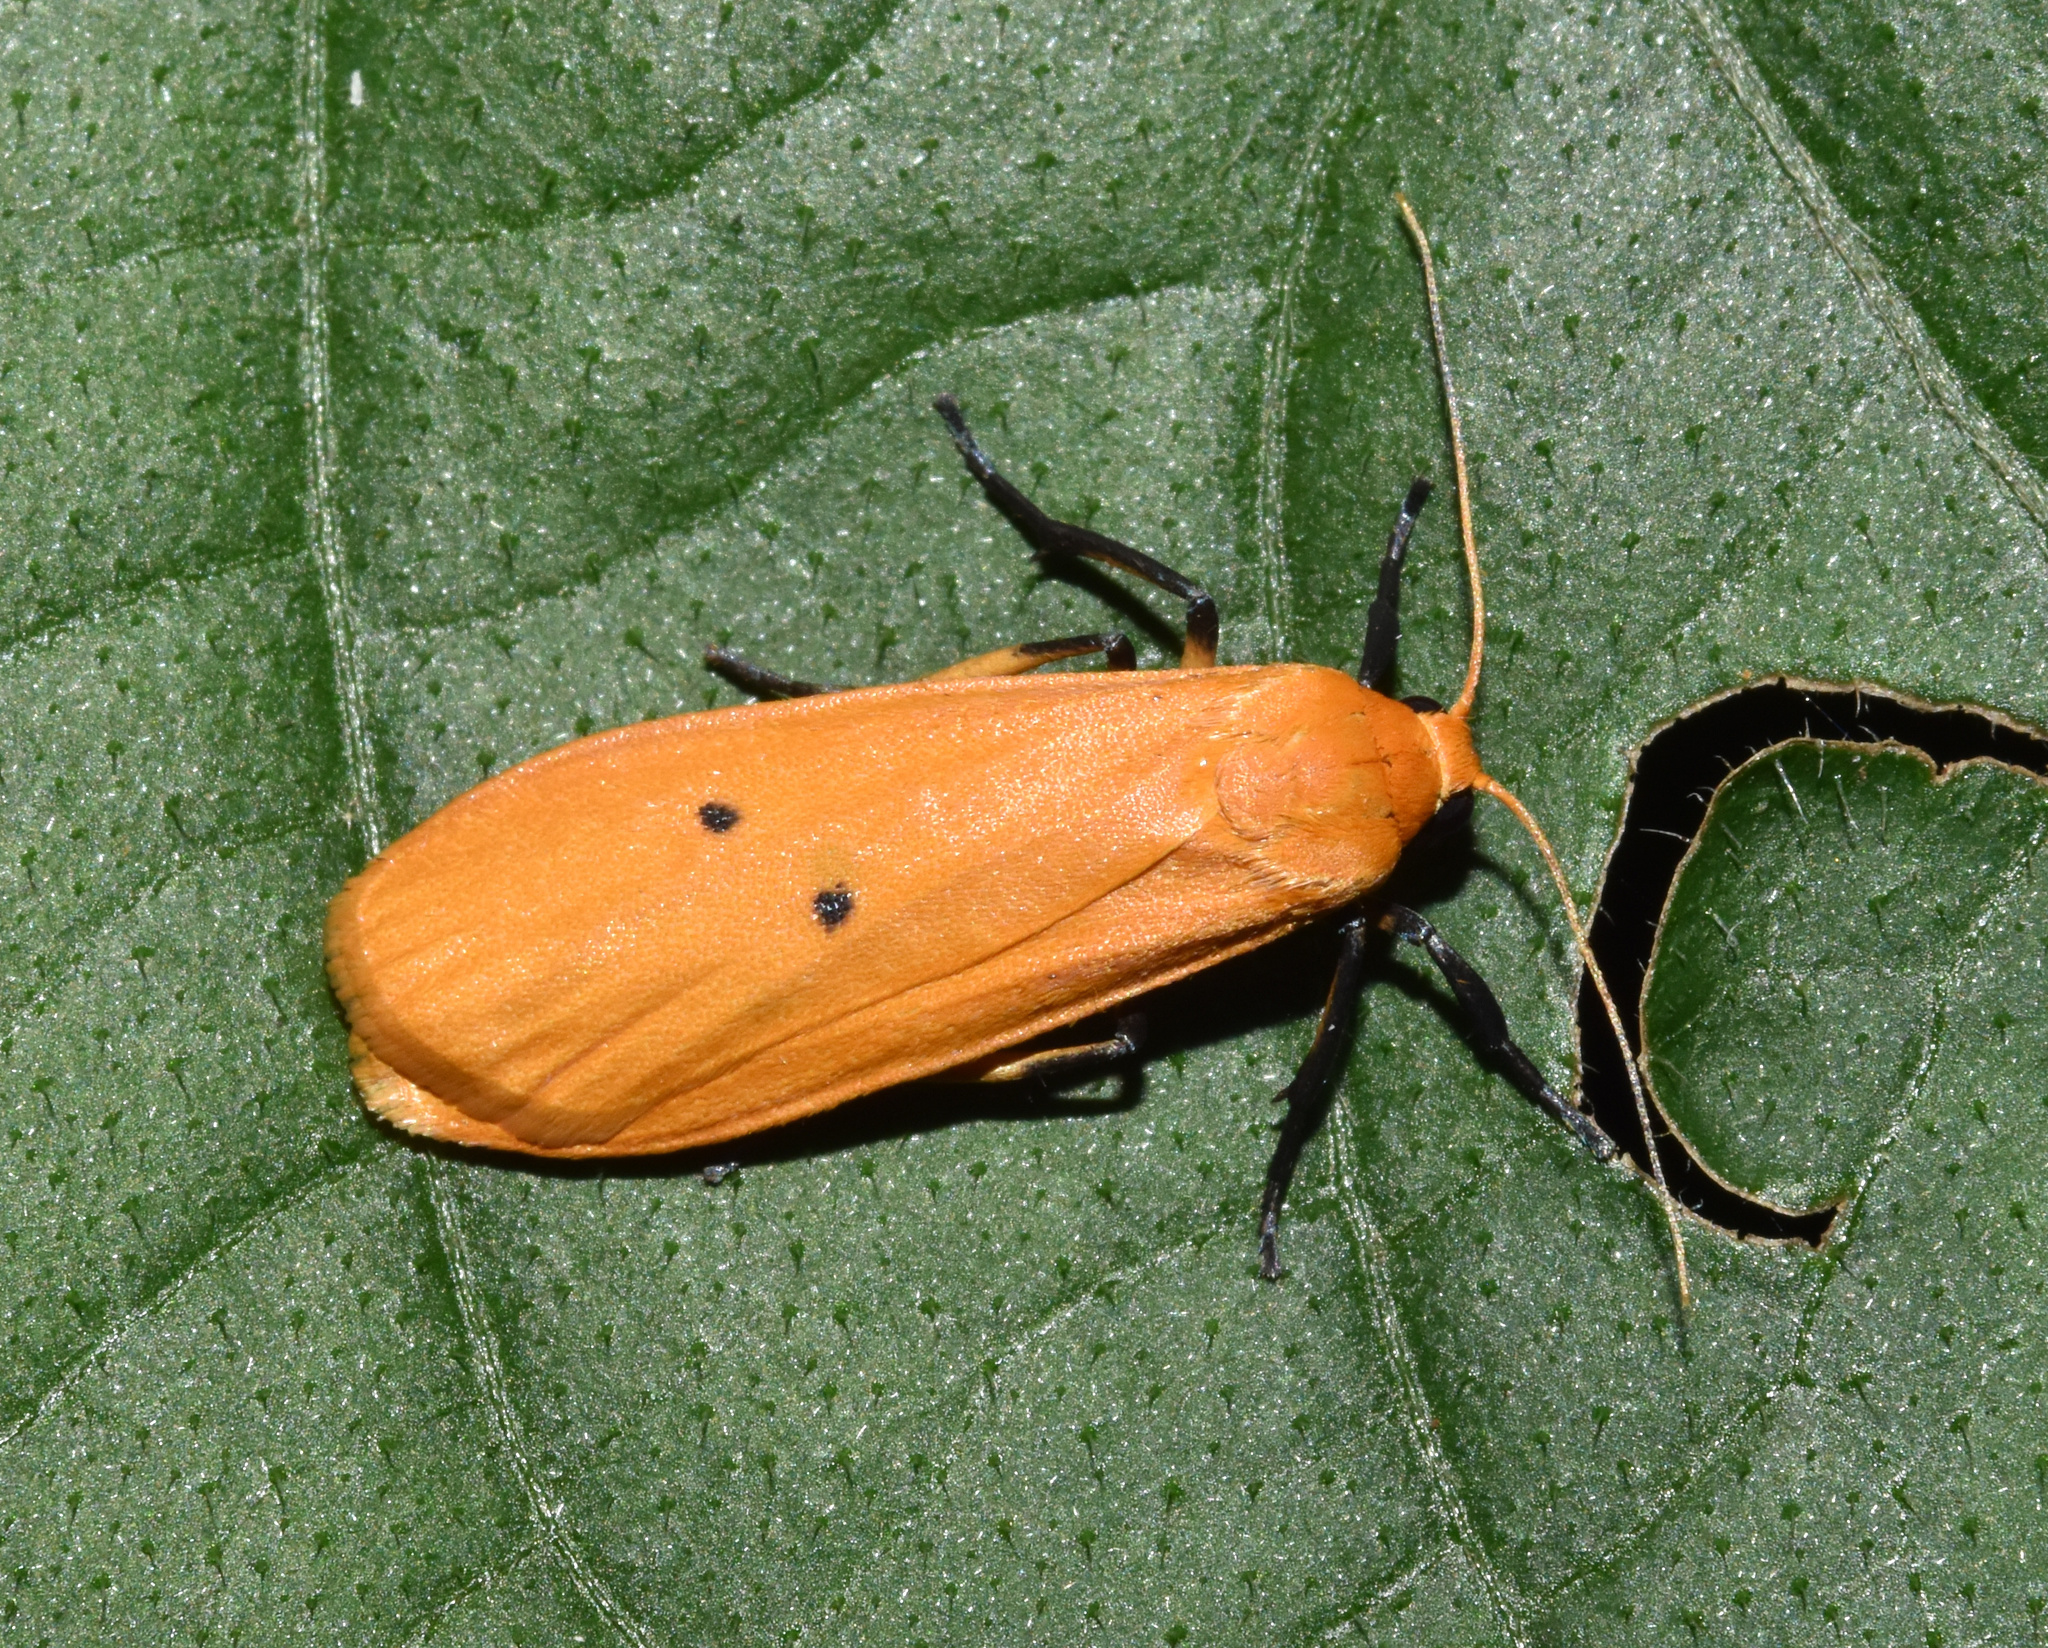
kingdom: Animalia
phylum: Arthropoda
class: Insecta
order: Lepidoptera
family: Erebidae
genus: Pseudocragia
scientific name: Pseudocragia quadrinotata
